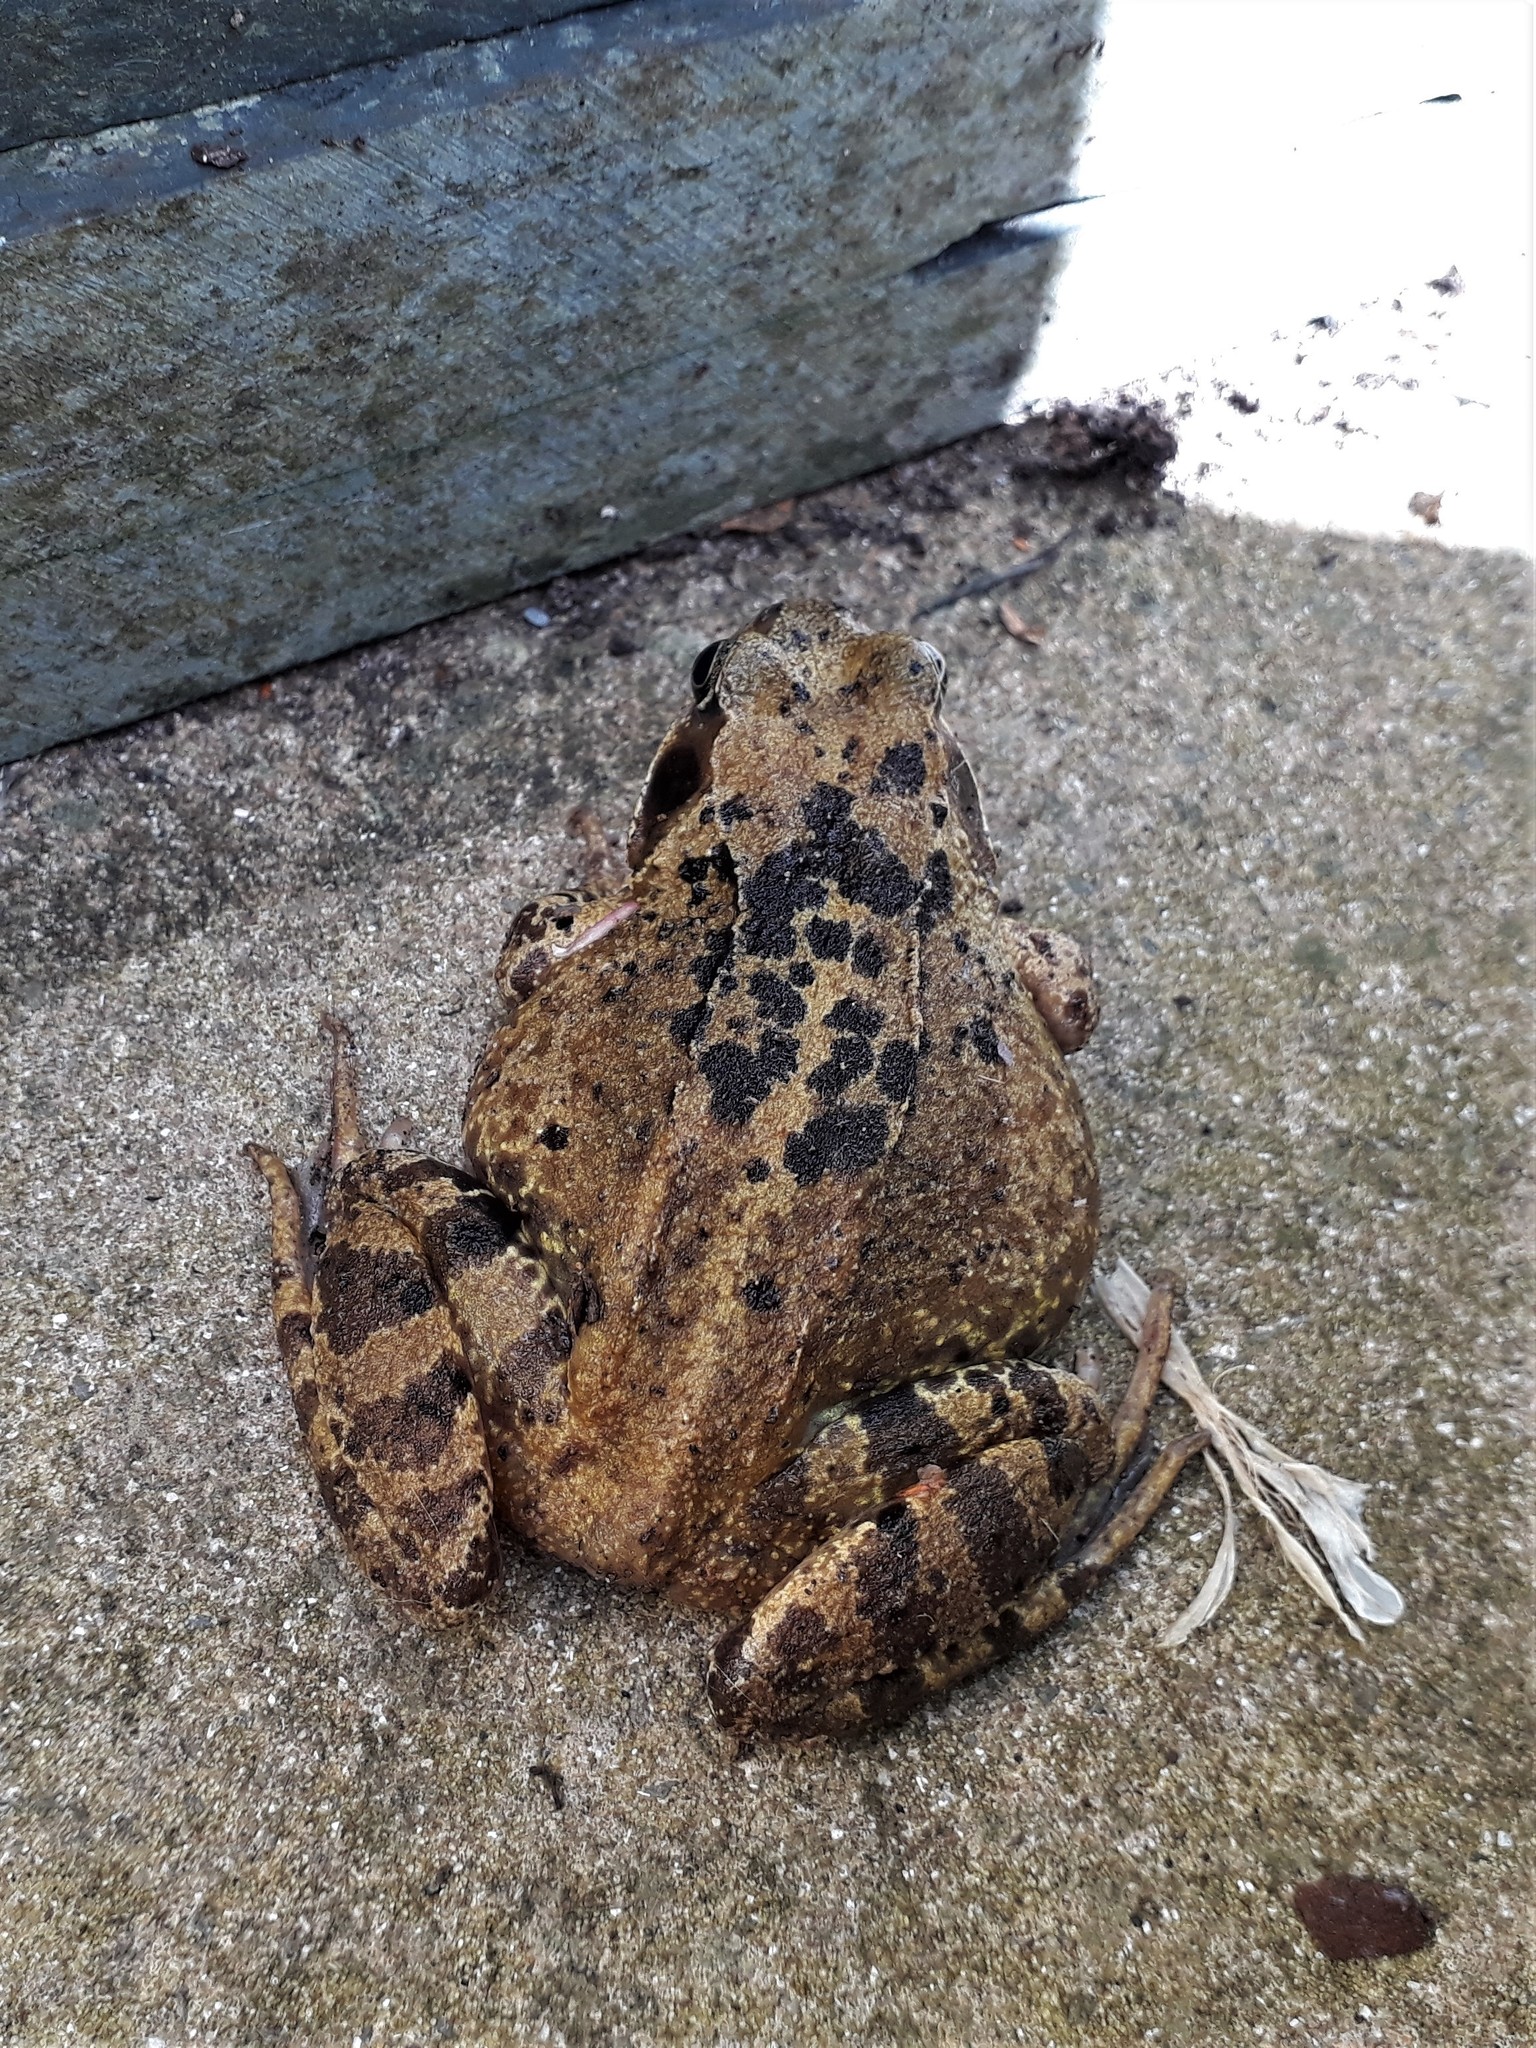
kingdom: Animalia
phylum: Chordata
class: Amphibia
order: Anura
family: Ranidae
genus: Rana
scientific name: Rana temporaria
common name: Common frog
